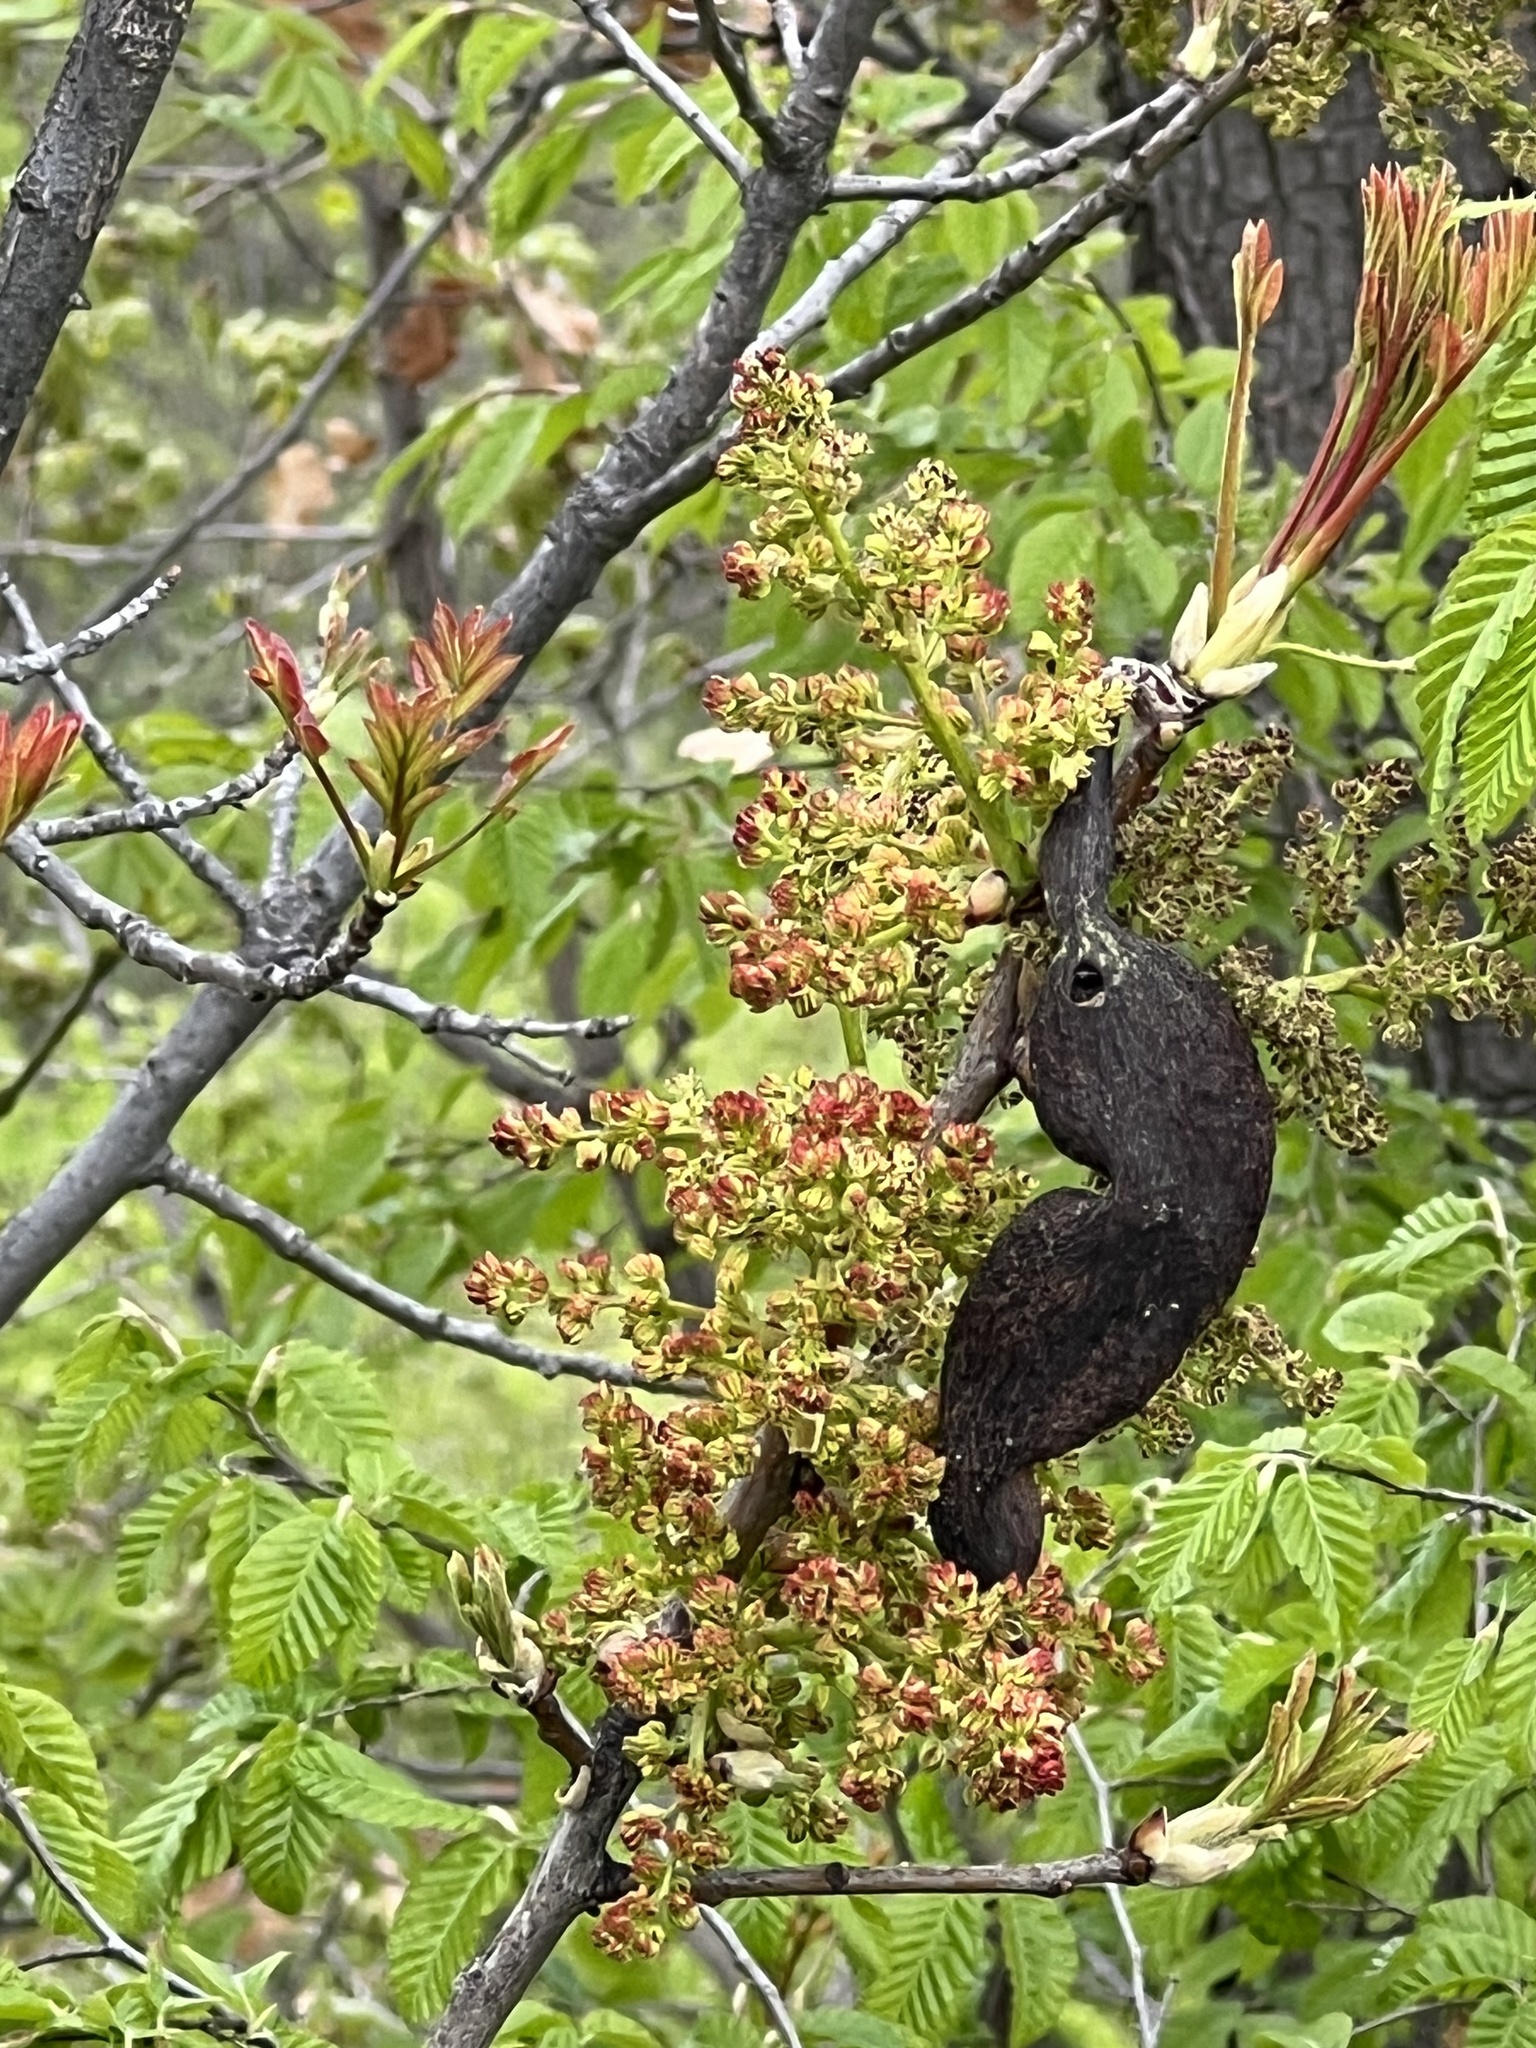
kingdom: Plantae
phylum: Tracheophyta
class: Magnoliopsida
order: Sapindales
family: Anacardiaceae
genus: Pistacia
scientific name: Pistacia terebinthus
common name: Terebinth
